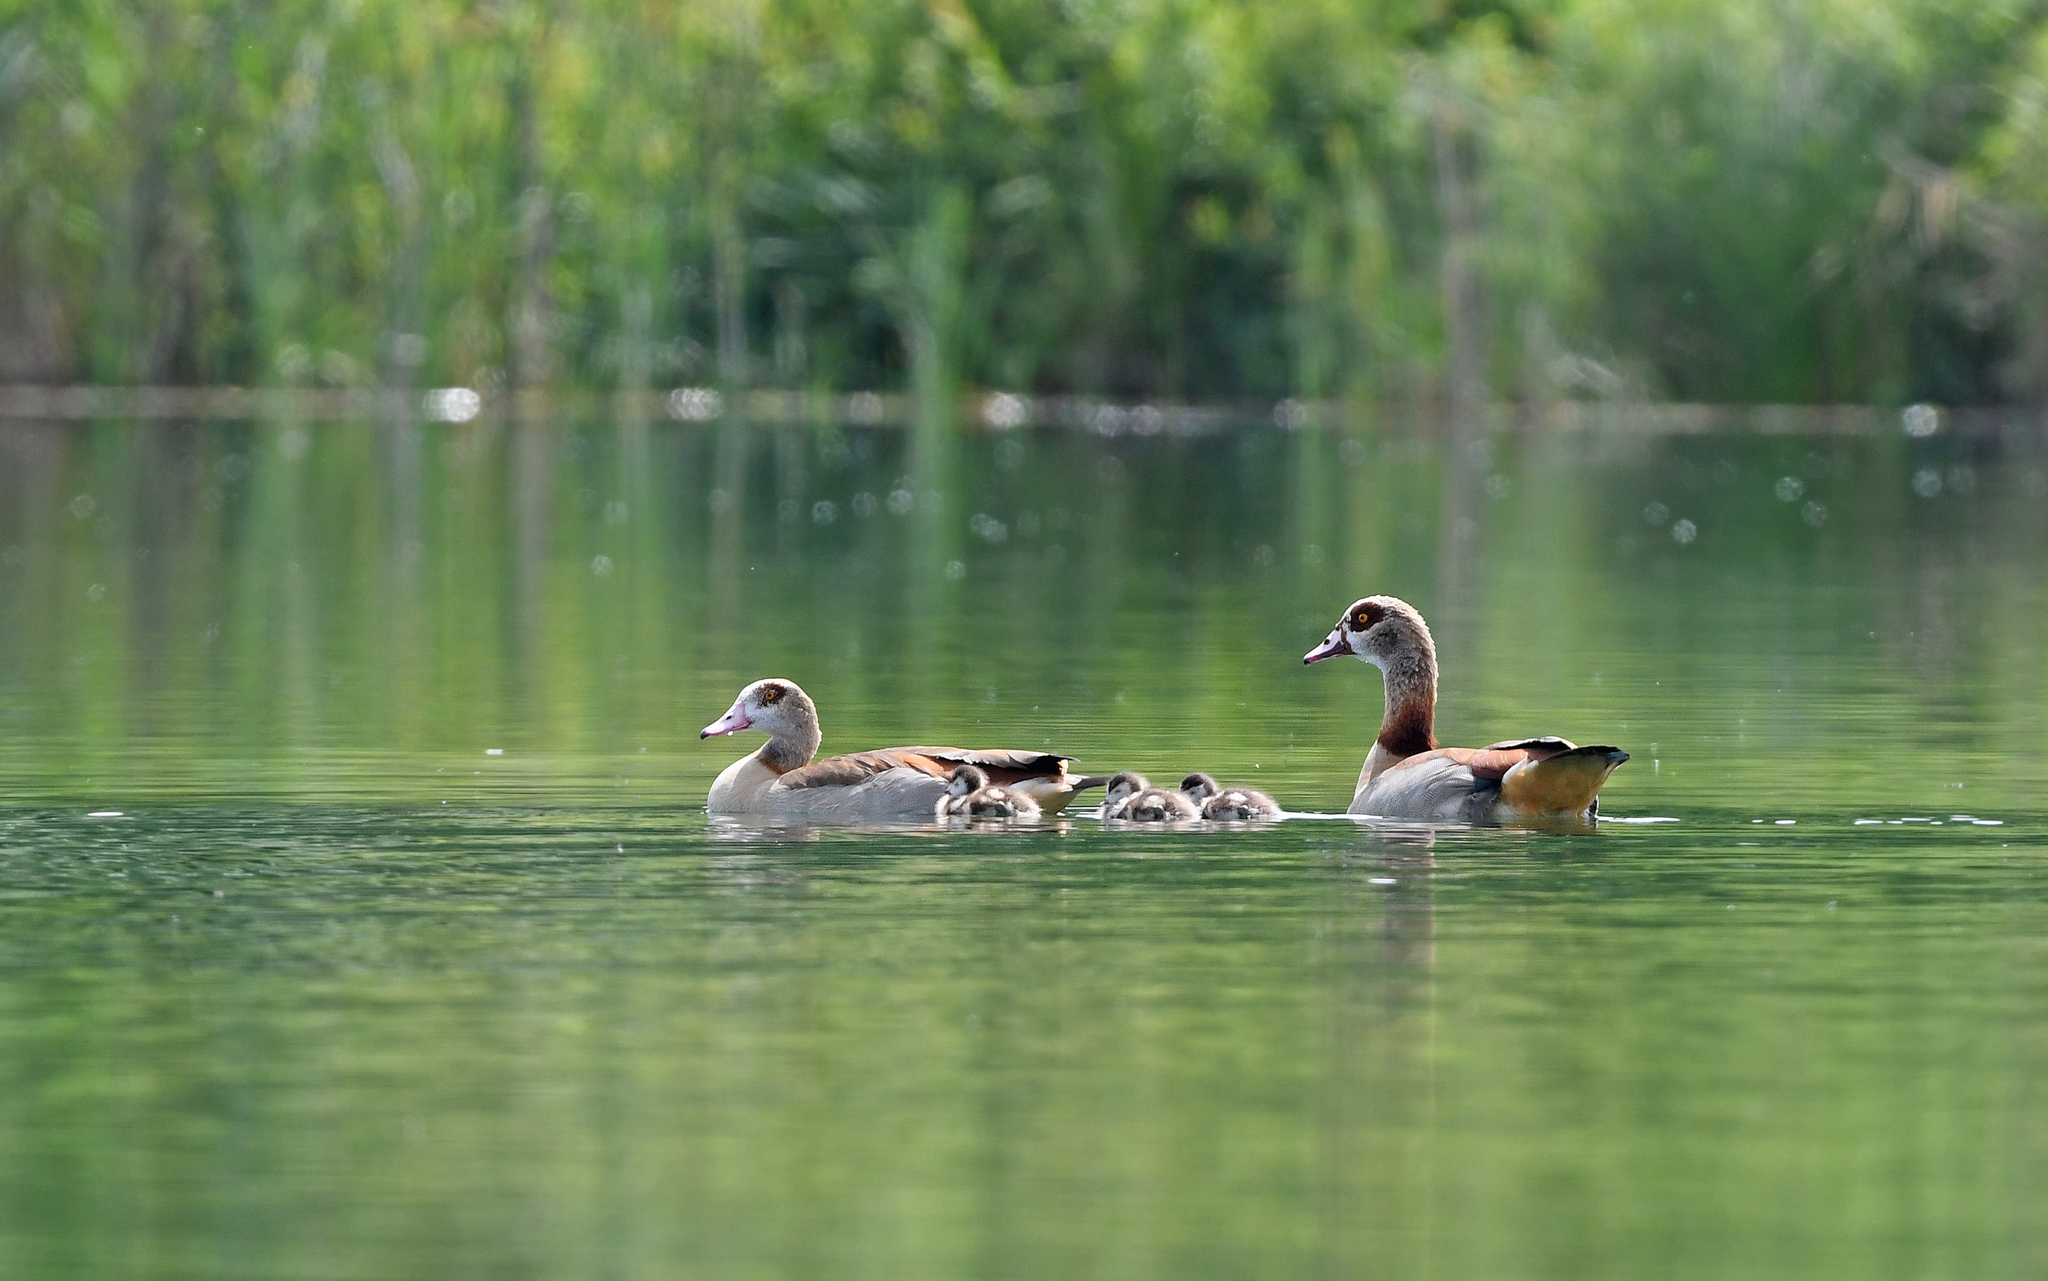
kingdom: Animalia
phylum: Chordata
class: Aves
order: Anseriformes
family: Anatidae
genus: Alopochen
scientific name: Alopochen aegyptiaca
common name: Egyptian goose
